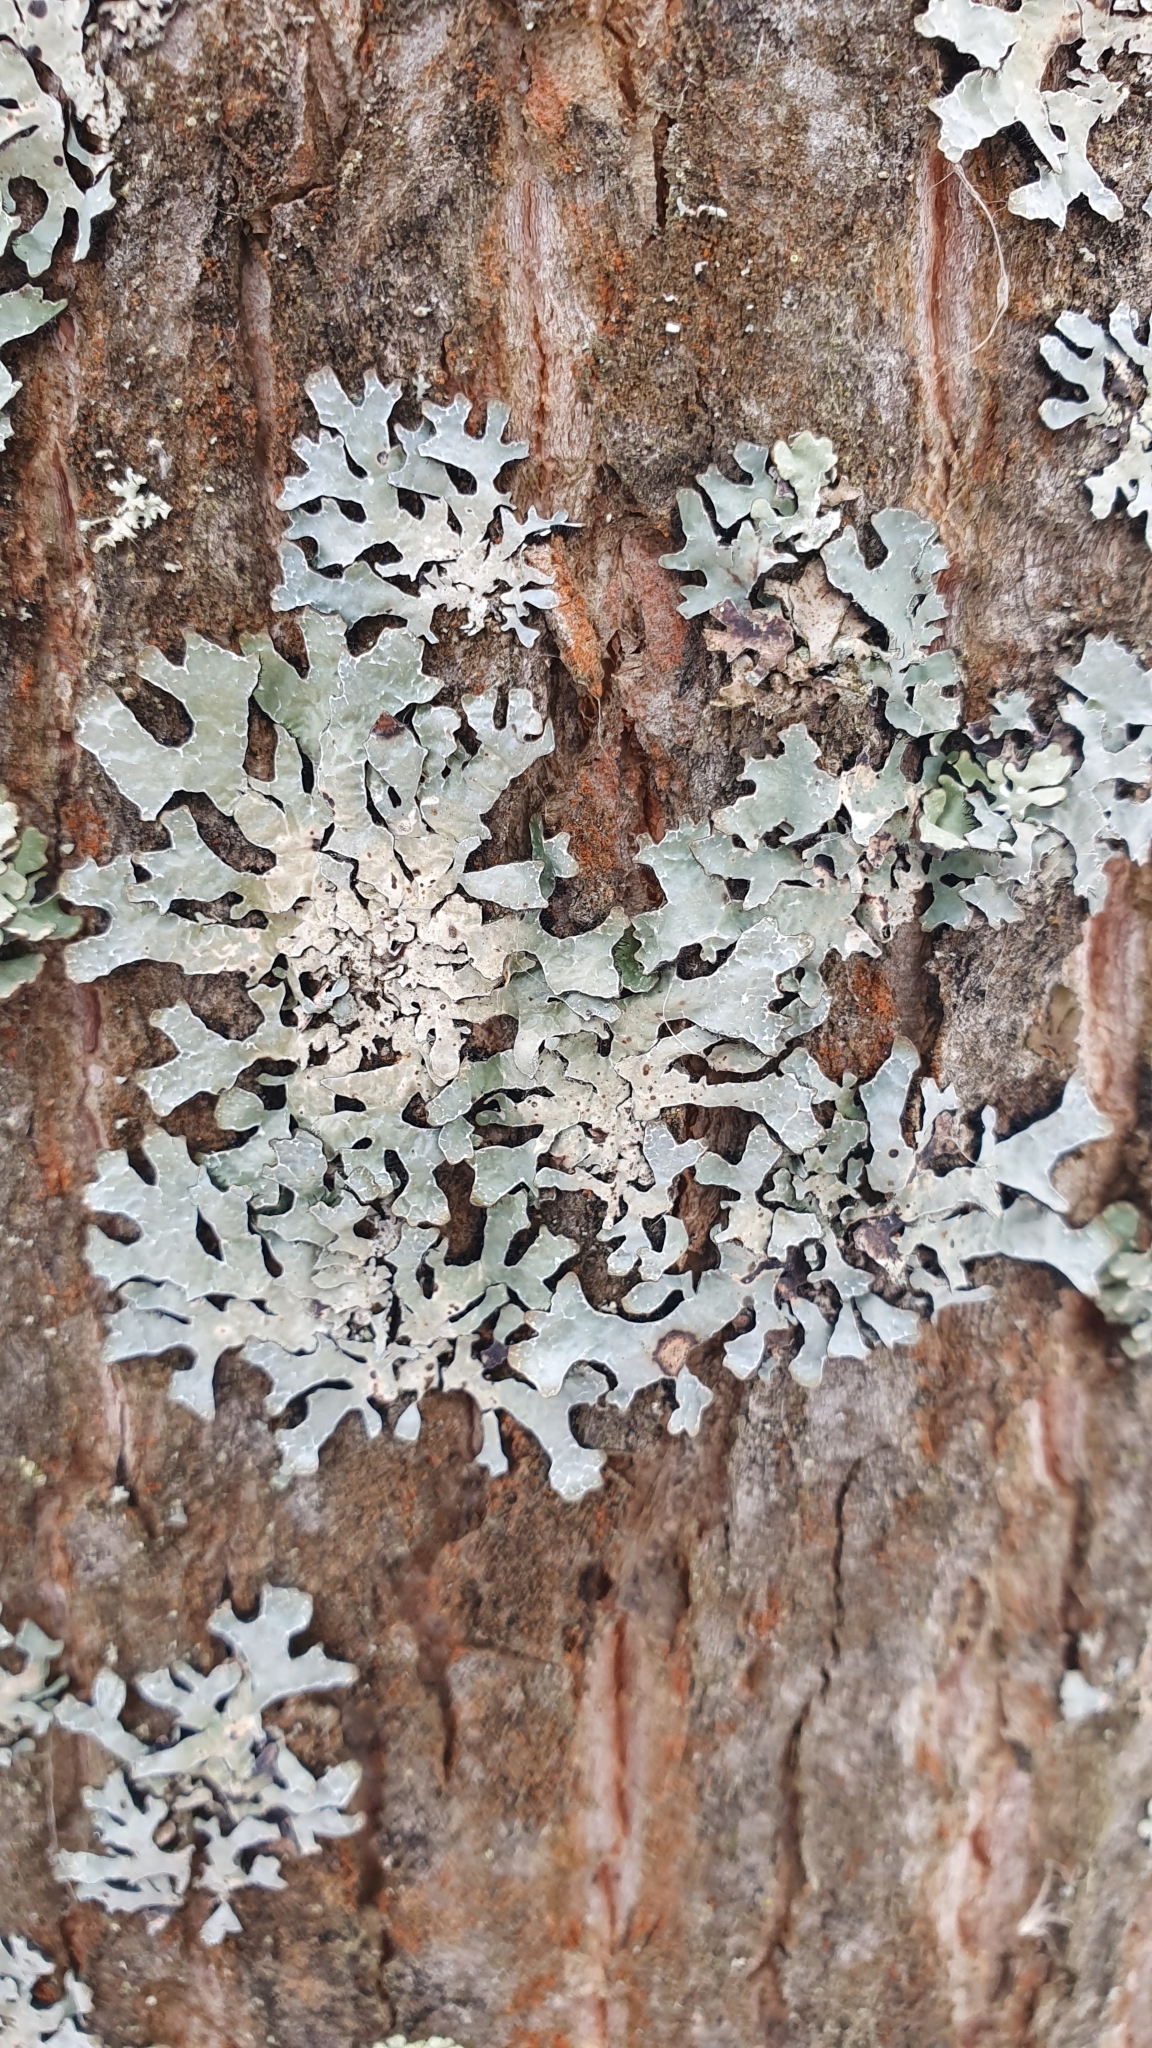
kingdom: Fungi
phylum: Ascomycota
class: Lecanoromycetes
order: Lecanorales
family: Parmeliaceae
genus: Parmelia
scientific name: Parmelia sulcata
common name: Netted shield lichen
